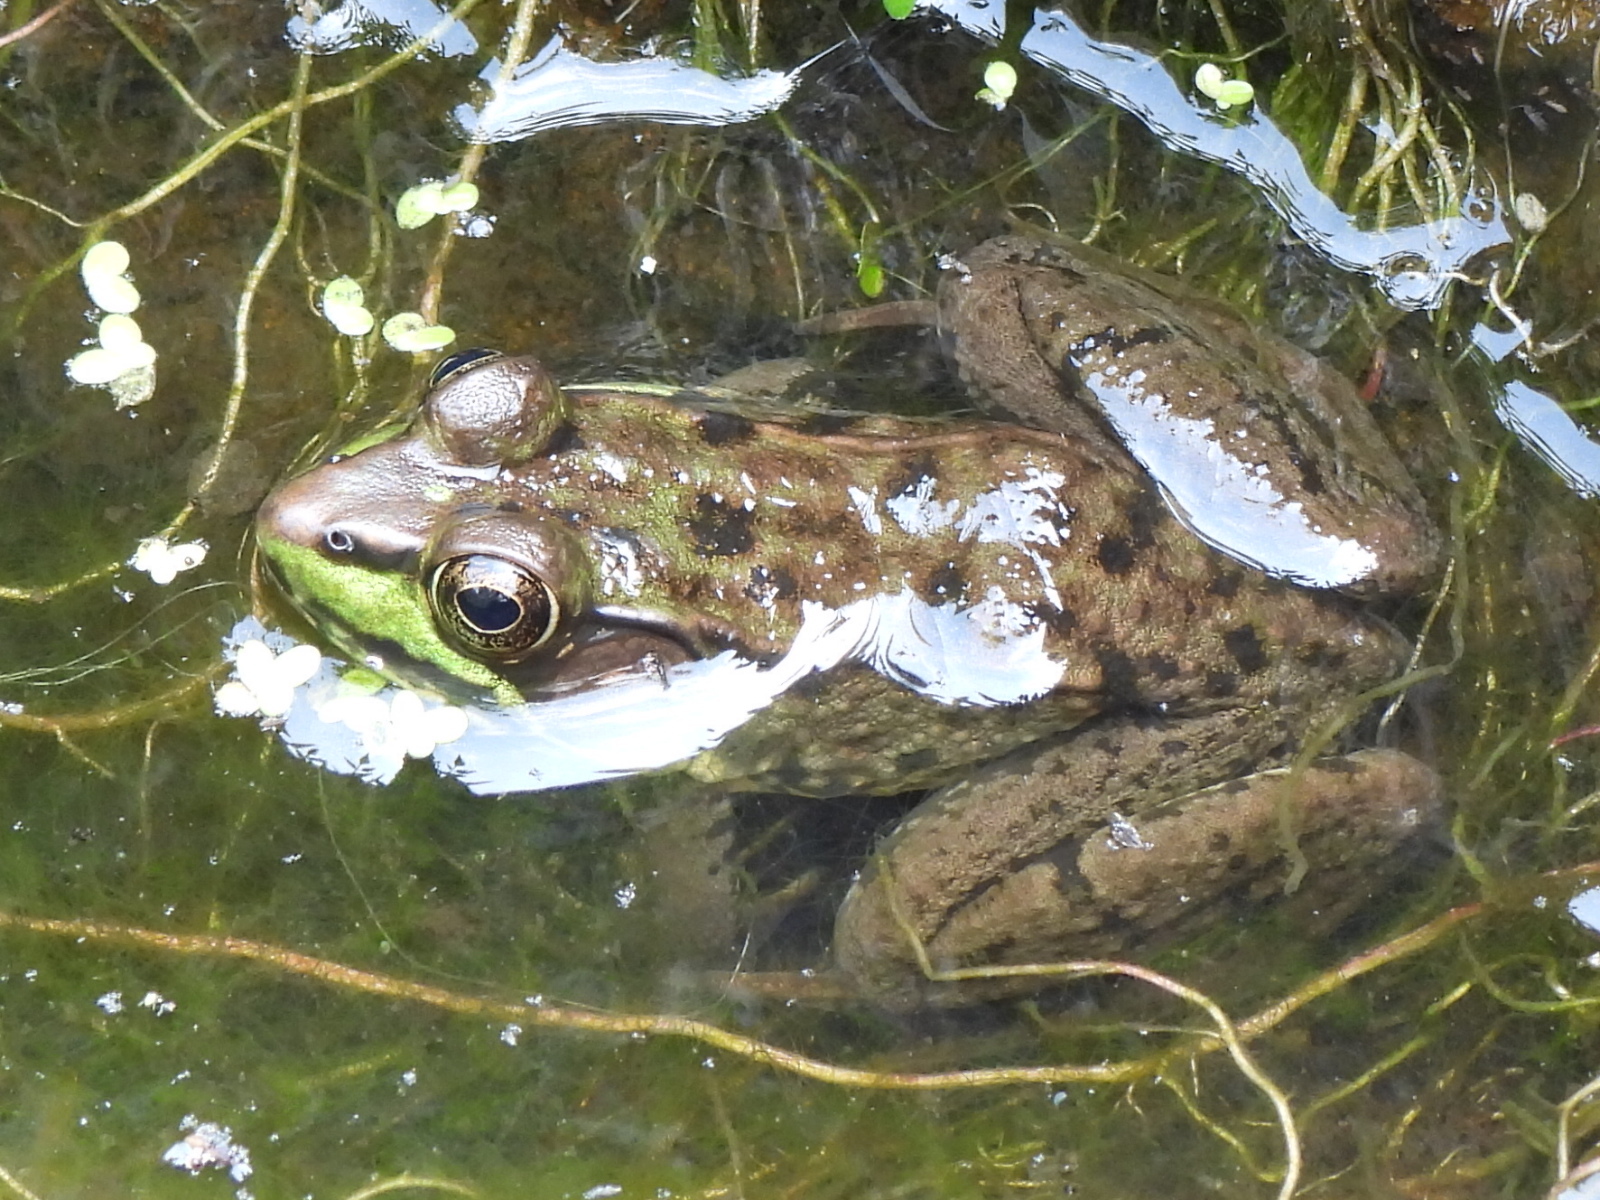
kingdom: Animalia
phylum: Chordata
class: Amphibia
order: Anura
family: Ranidae
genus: Lithobates
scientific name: Lithobates clamitans
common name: Green frog
